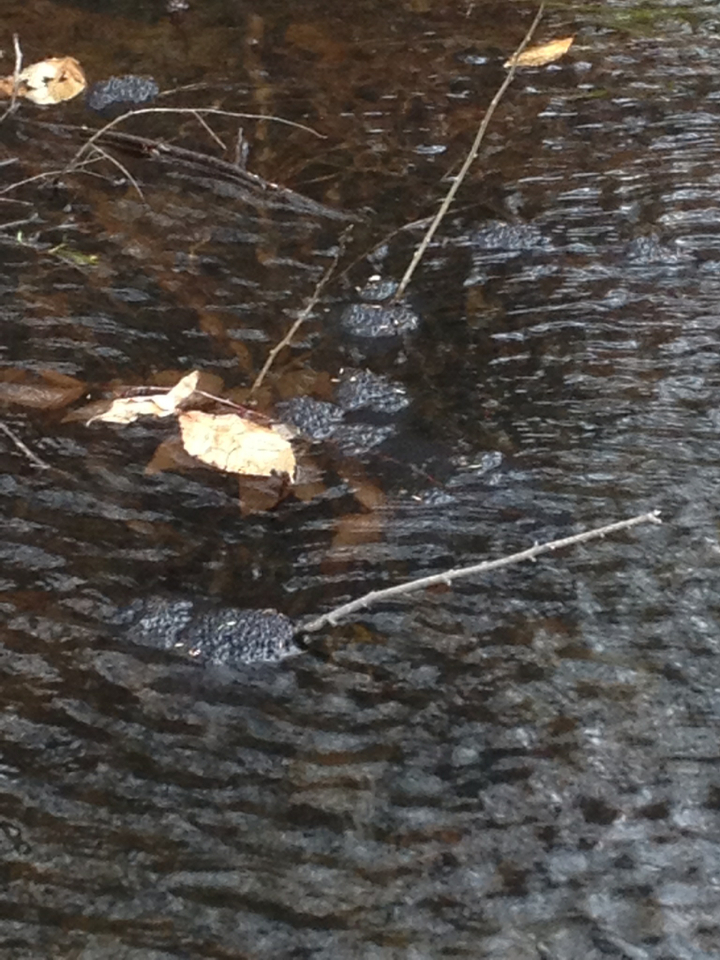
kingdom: Animalia
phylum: Chordata
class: Amphibia
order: Anura
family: Ranidae
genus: Lithobates
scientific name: Lithobates sylvaticus
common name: Wood frog
